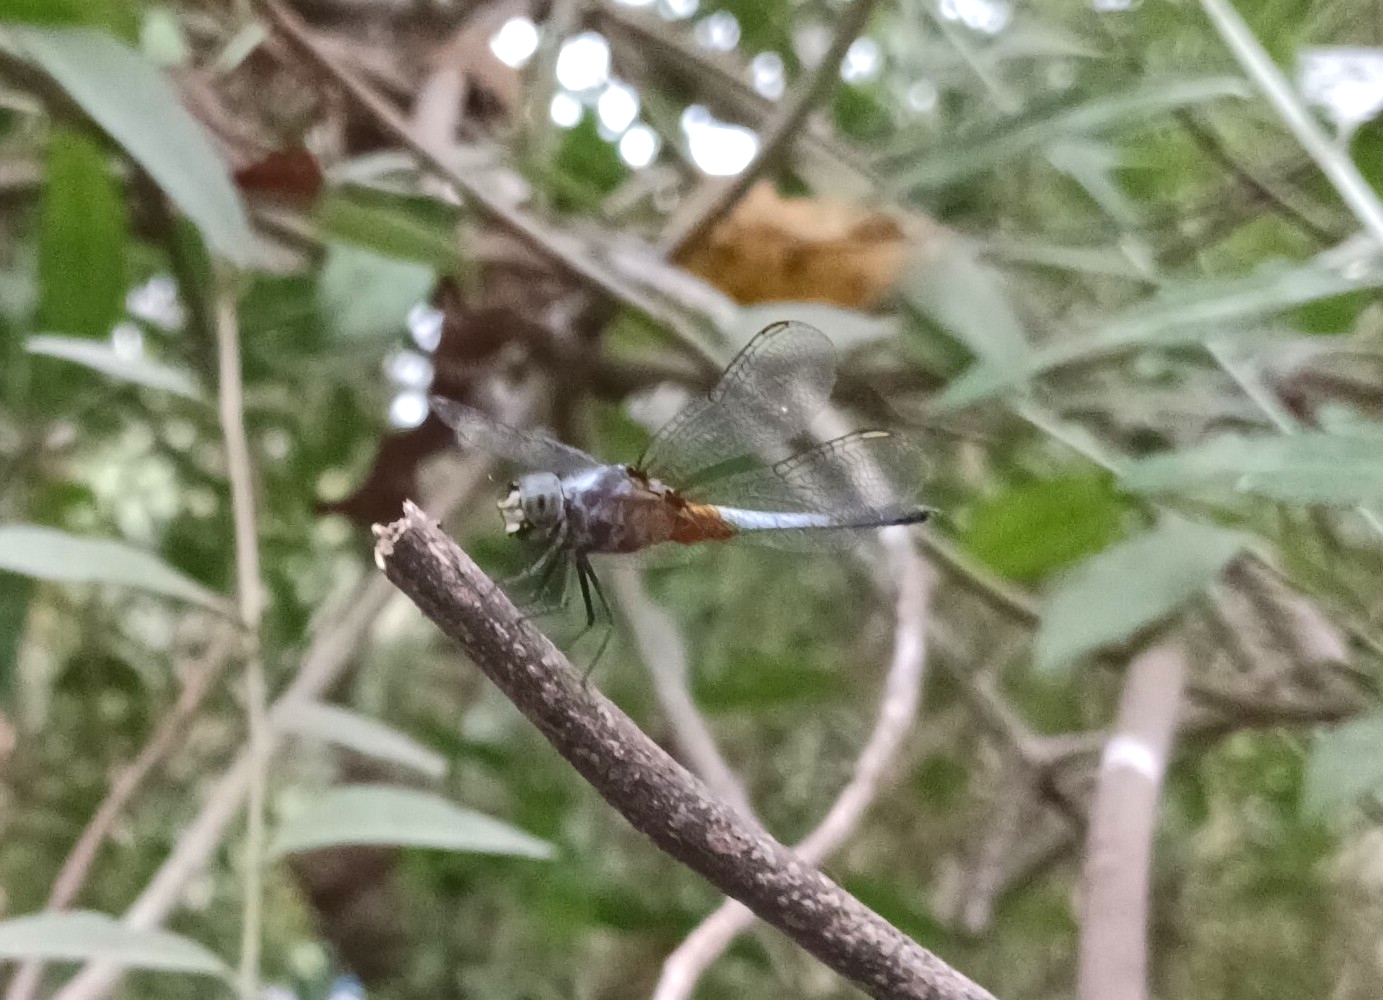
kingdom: Animalia
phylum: Arthropoda
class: Insecta
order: Odonata
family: Libellulidae
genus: Brachydiplax
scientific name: Brachydiplax chalybea
